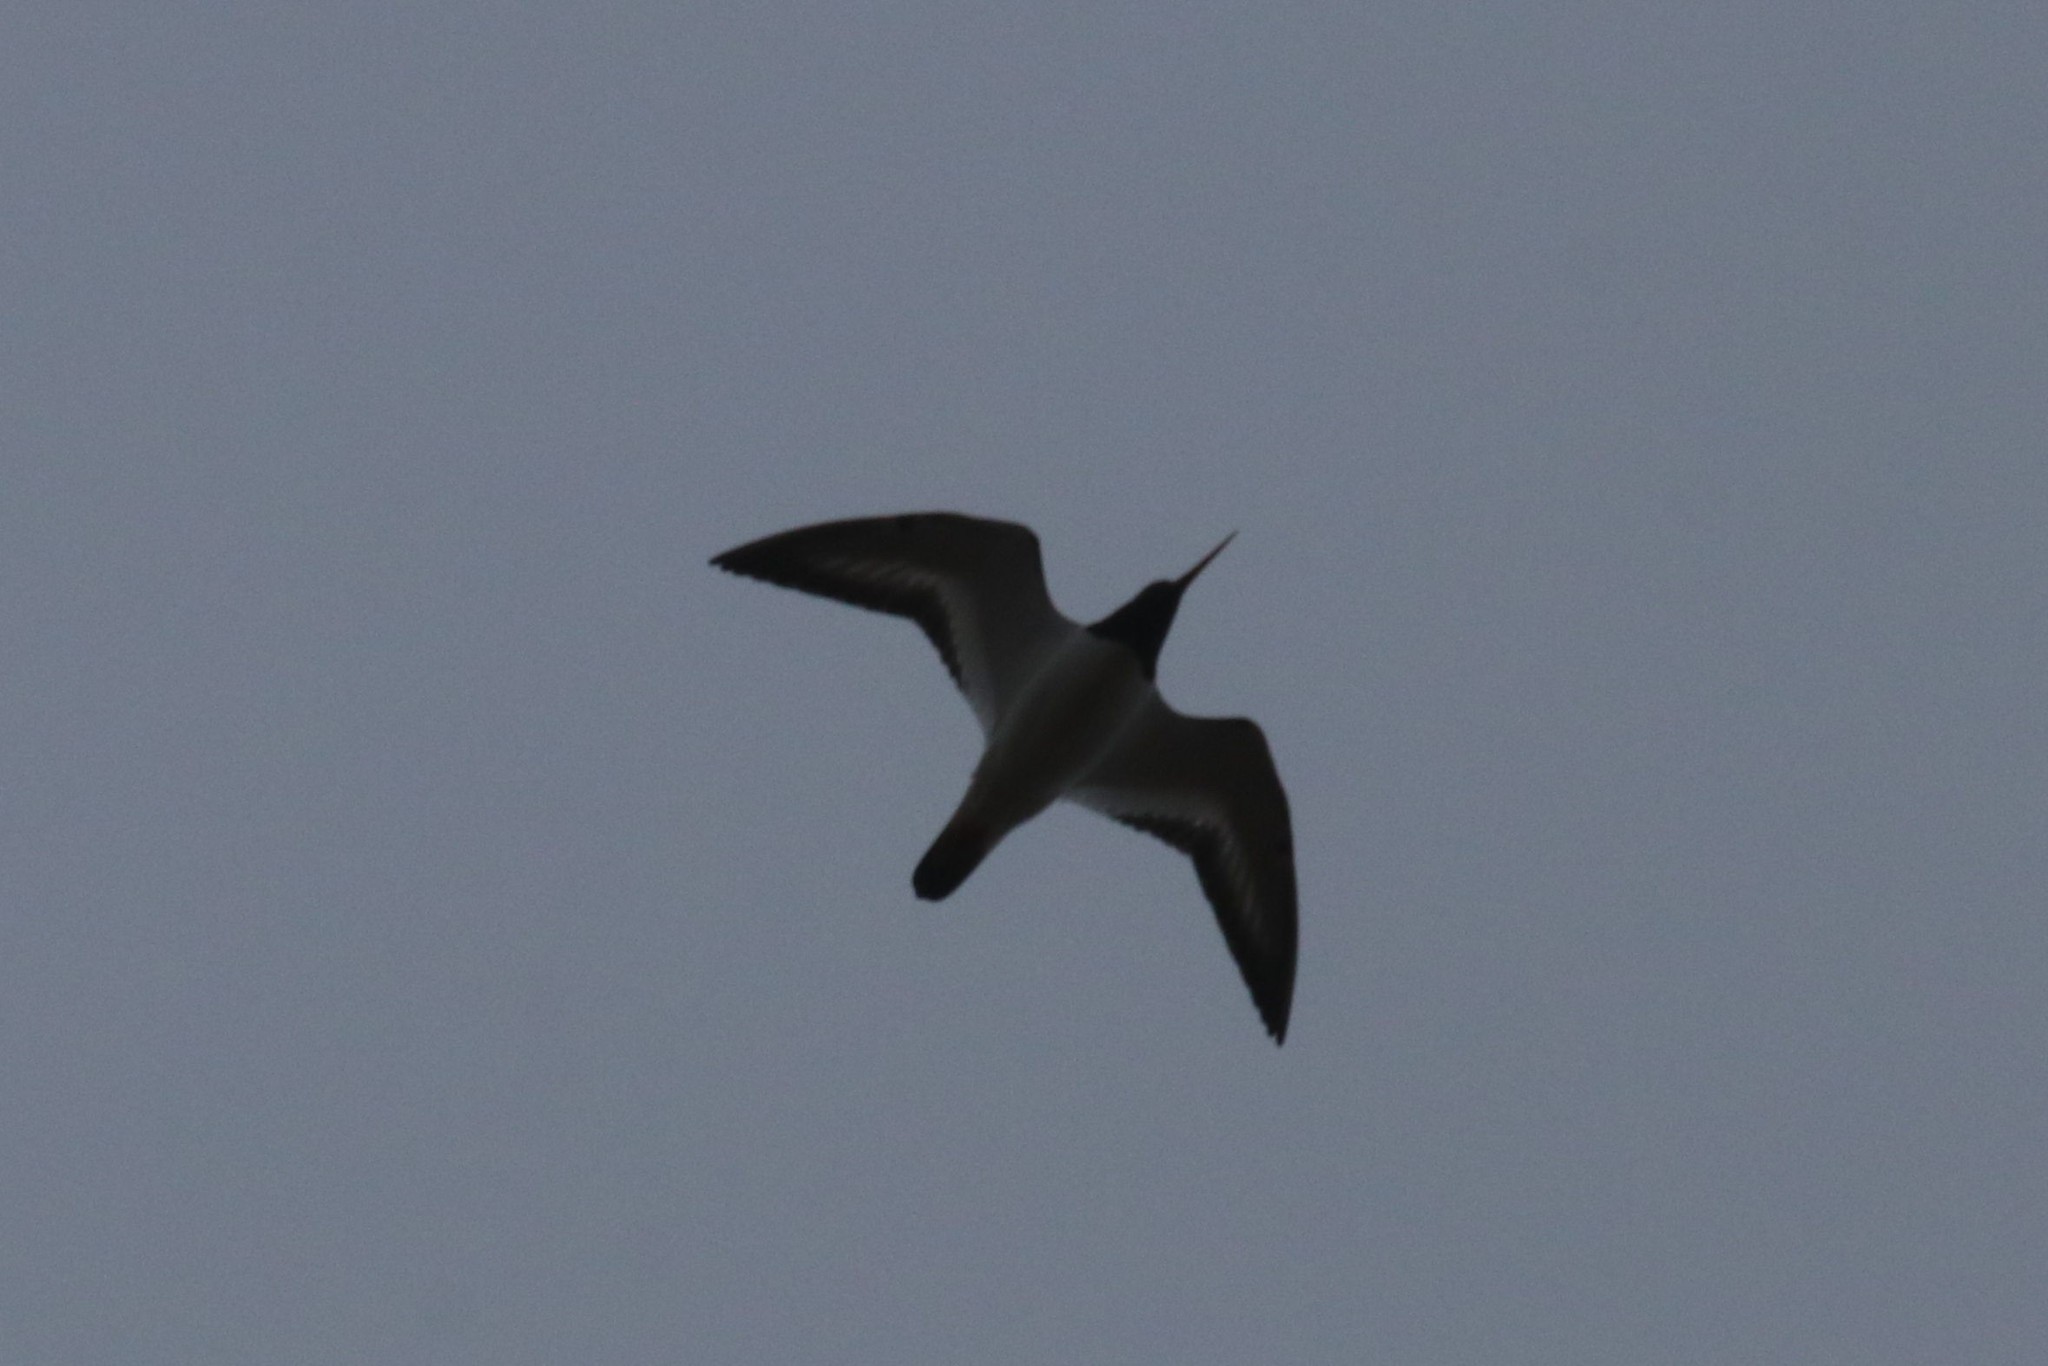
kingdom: Animalia
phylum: Chordata
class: Aves
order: Charadriiformes
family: Haematopodidae
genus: Haematopus
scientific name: Haematopus ostralegus
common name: Eurasian oystercatcher
